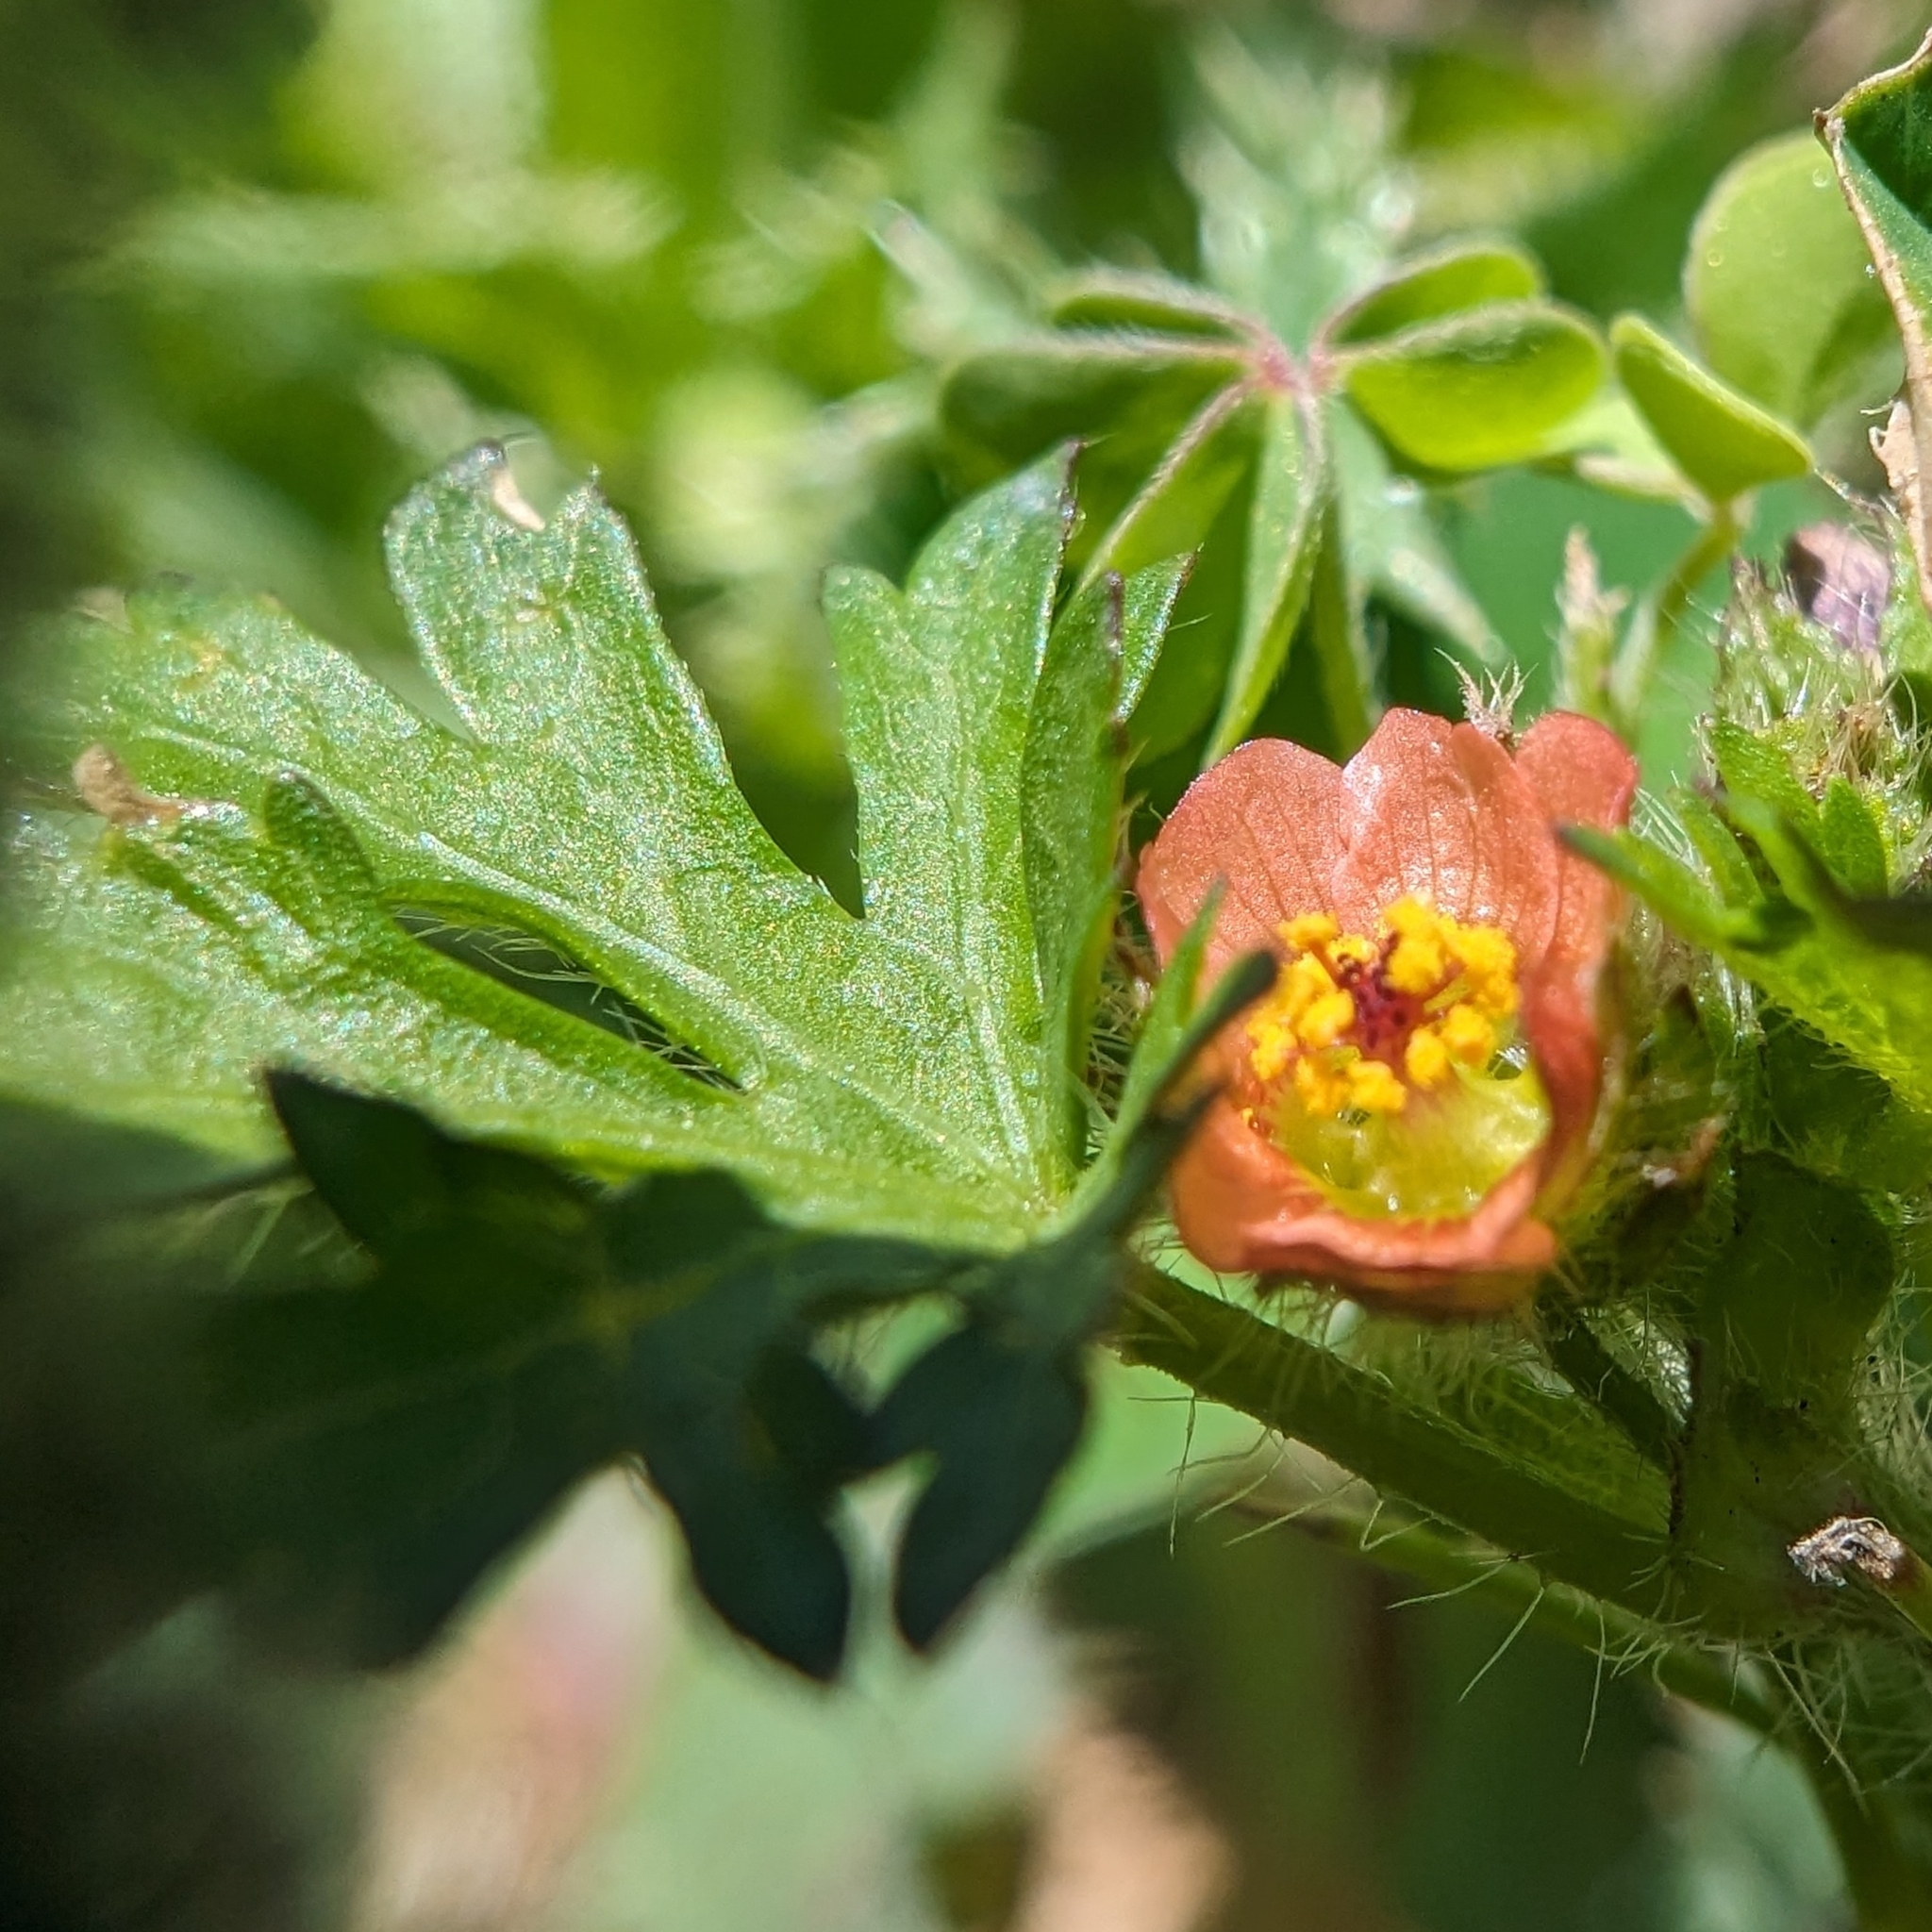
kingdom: Plantae
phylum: Tracheophyta
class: Magnoliopsida
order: Malvales
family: Malvaceae
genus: Modiola
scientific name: Modiola caroliniana
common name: Carolina bristlemallow
